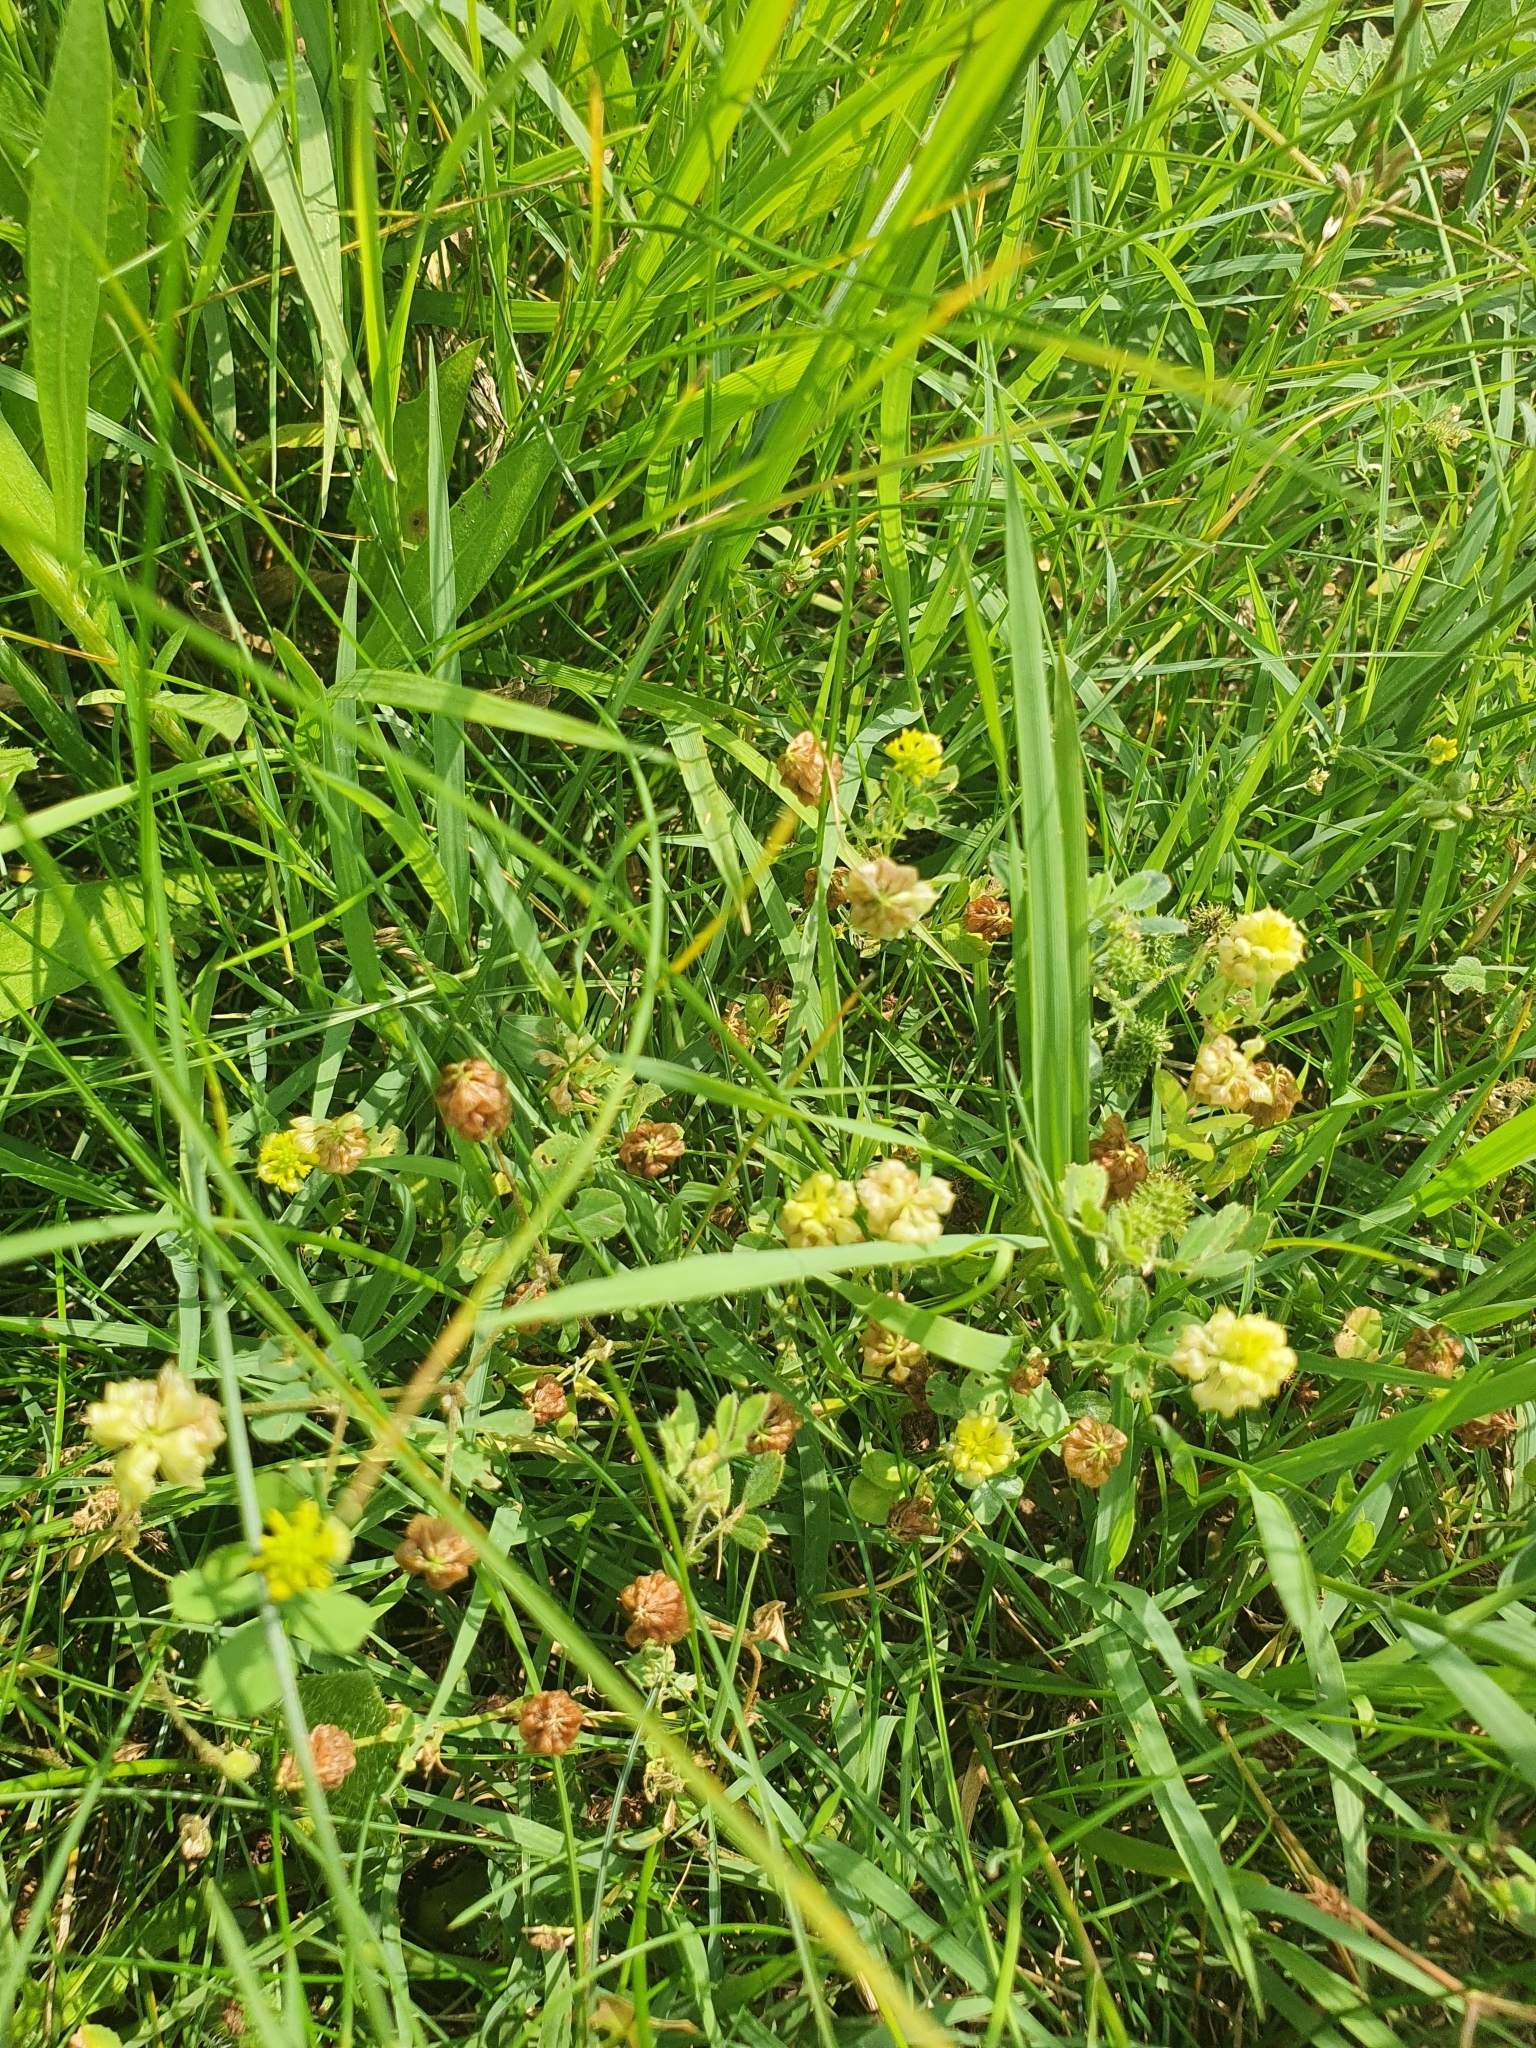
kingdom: Plantae
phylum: Tracheophyta
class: Magnoliopsida
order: Fabales
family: Fabaceae
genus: Trifolium
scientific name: Trifolium campestre
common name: Field clover
